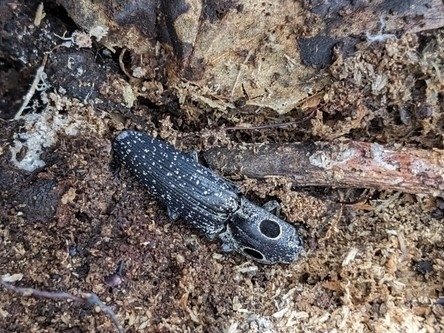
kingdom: Animalia
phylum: Arthropoda
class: Insecta
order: Coleoptera
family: Elateridae
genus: Alaus
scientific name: Alaus oculatus
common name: Eastern eyed click beetle
